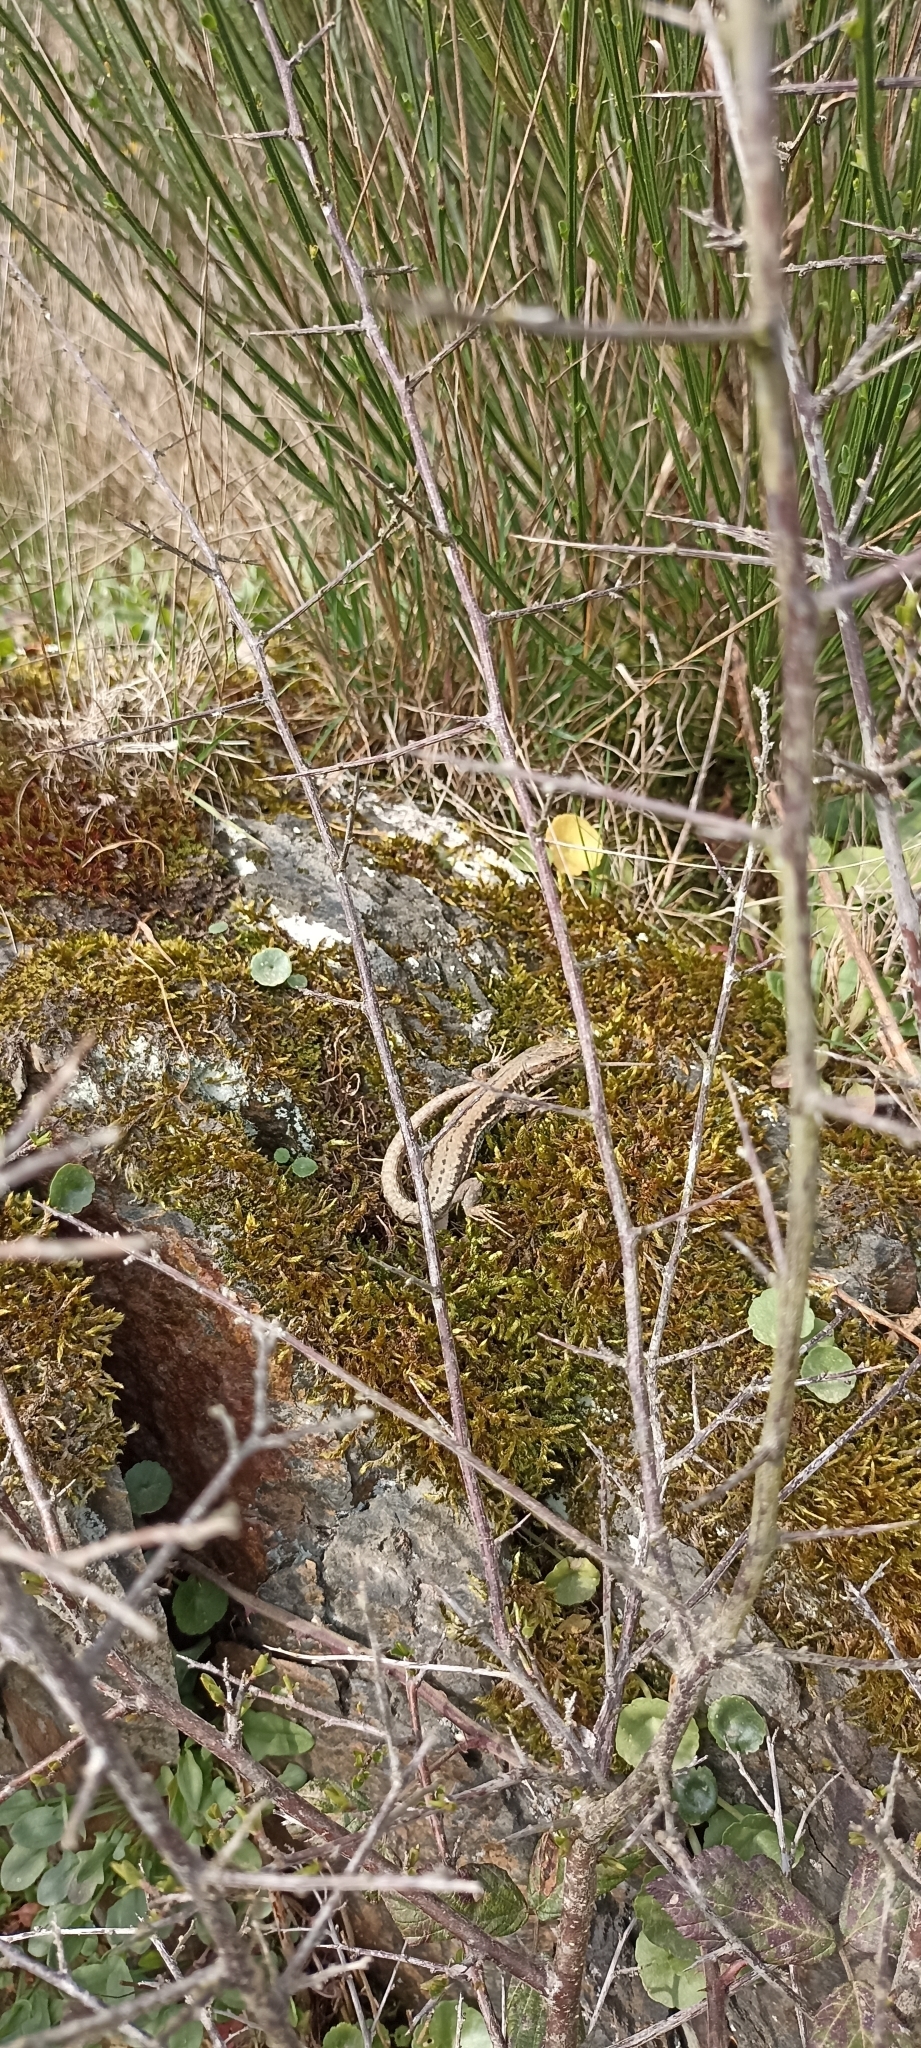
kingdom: Animalia
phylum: Chordata
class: Squamata
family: Lacertidae
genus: Podarcis
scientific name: Podarcis muralis
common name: Common wall lizard
